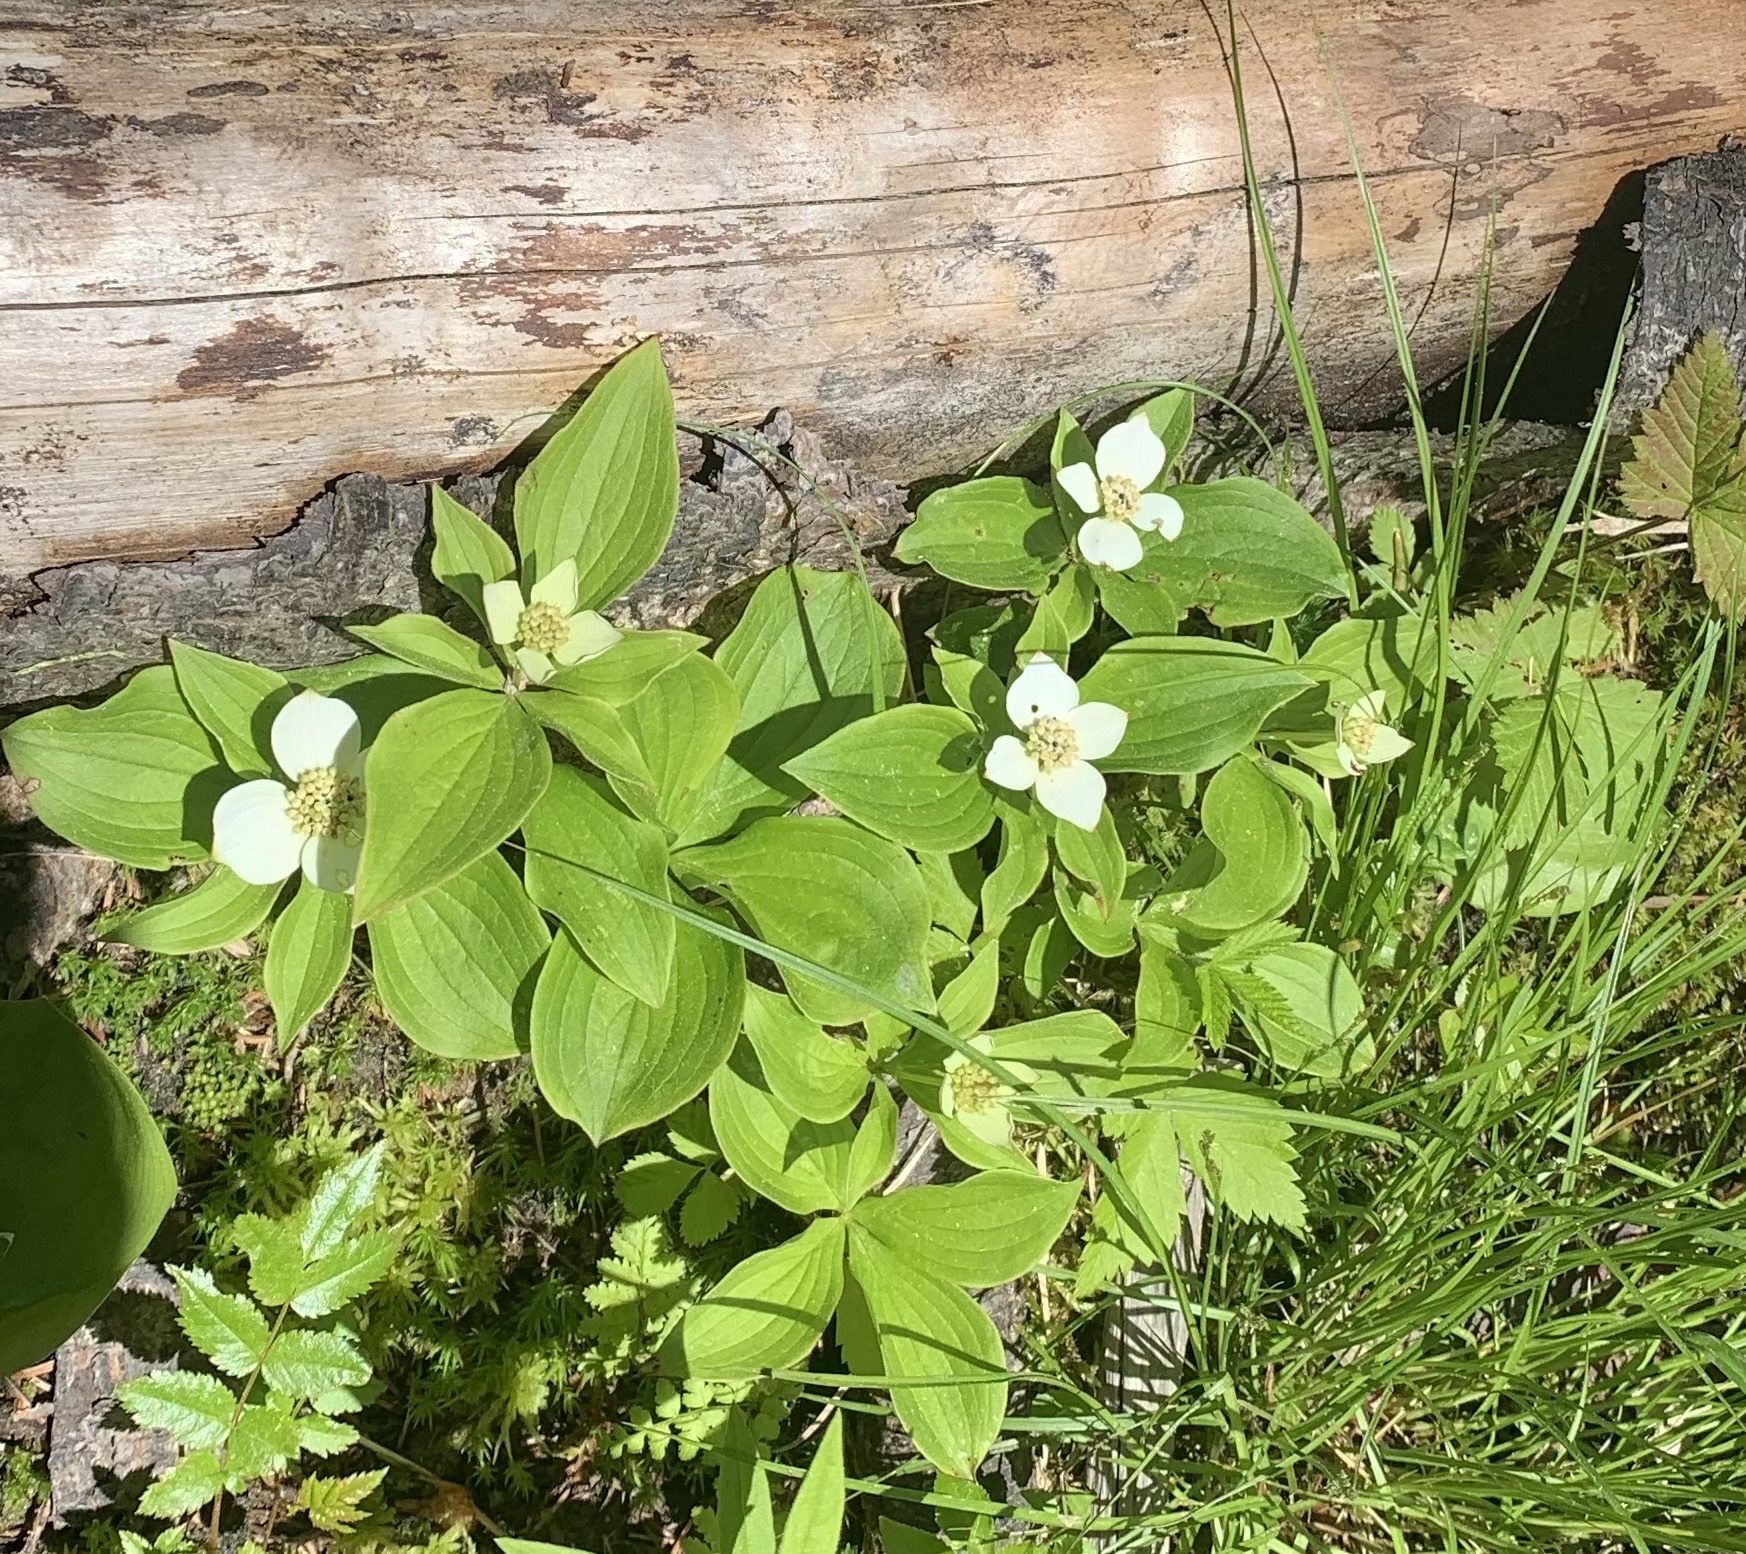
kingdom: Plantae
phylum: Tracheophyta
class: Magnoliopsida
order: Cornales
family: Cornaceae
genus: Cornus
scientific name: Cornus canadensis
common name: Creeping dogwood
